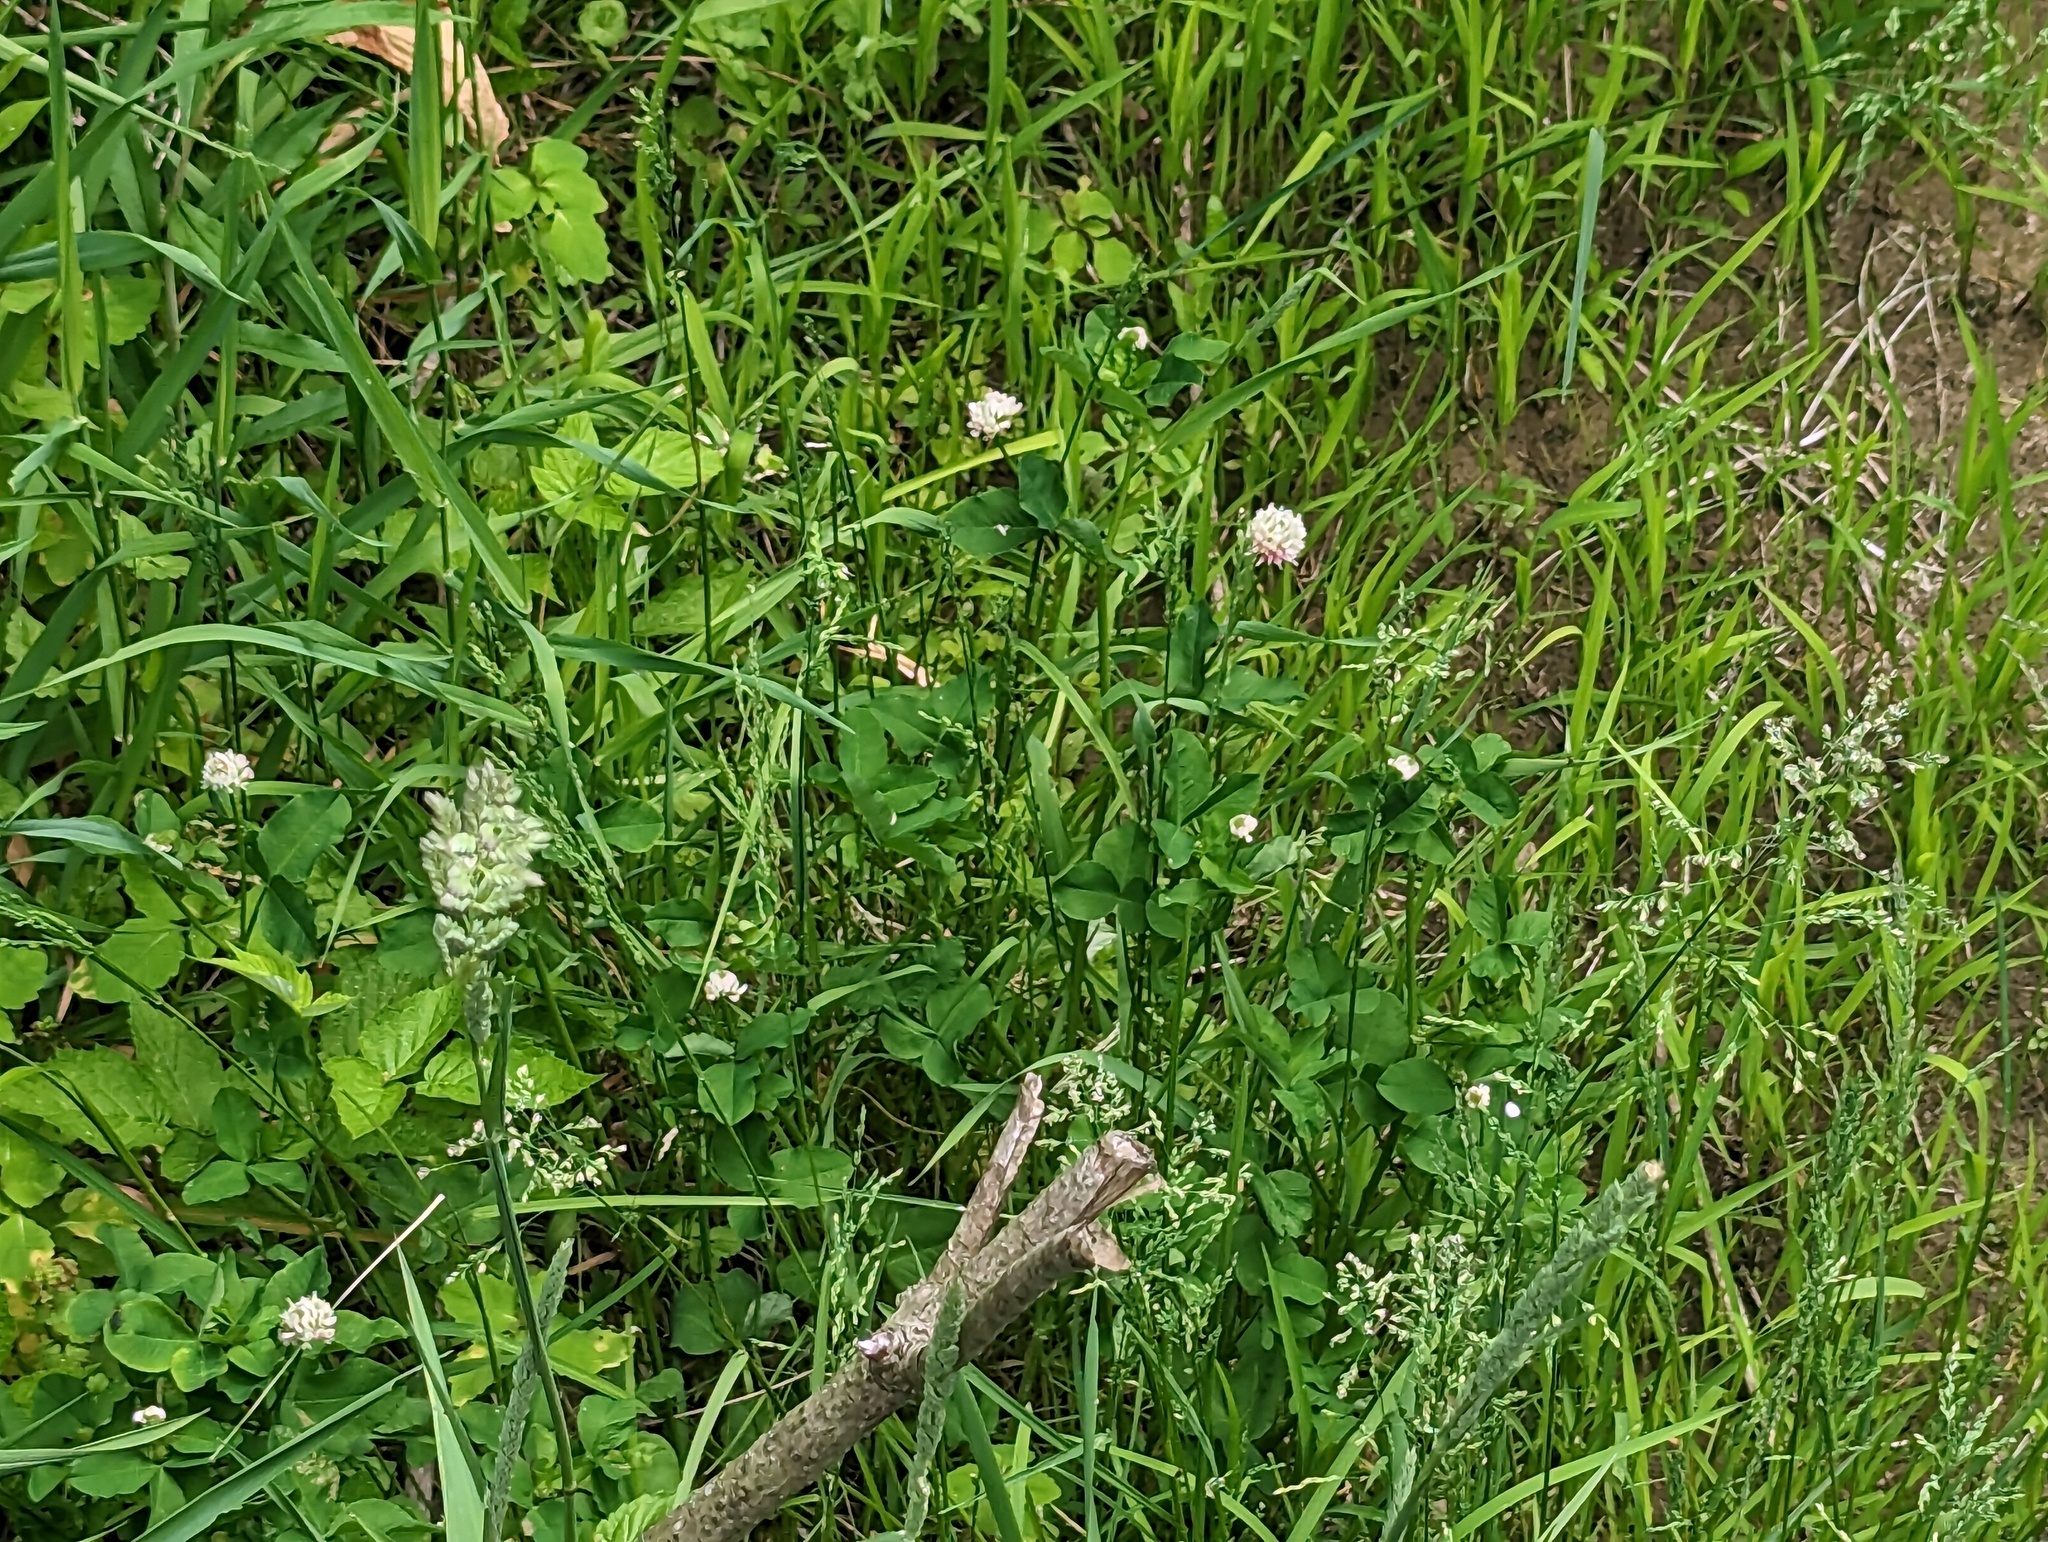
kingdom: Plantae
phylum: Tracheophyta
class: Magnoliopsida
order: Fabales
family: Fabaceae
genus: Trifolium
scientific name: Trifolium hybridum
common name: Alsike clover
